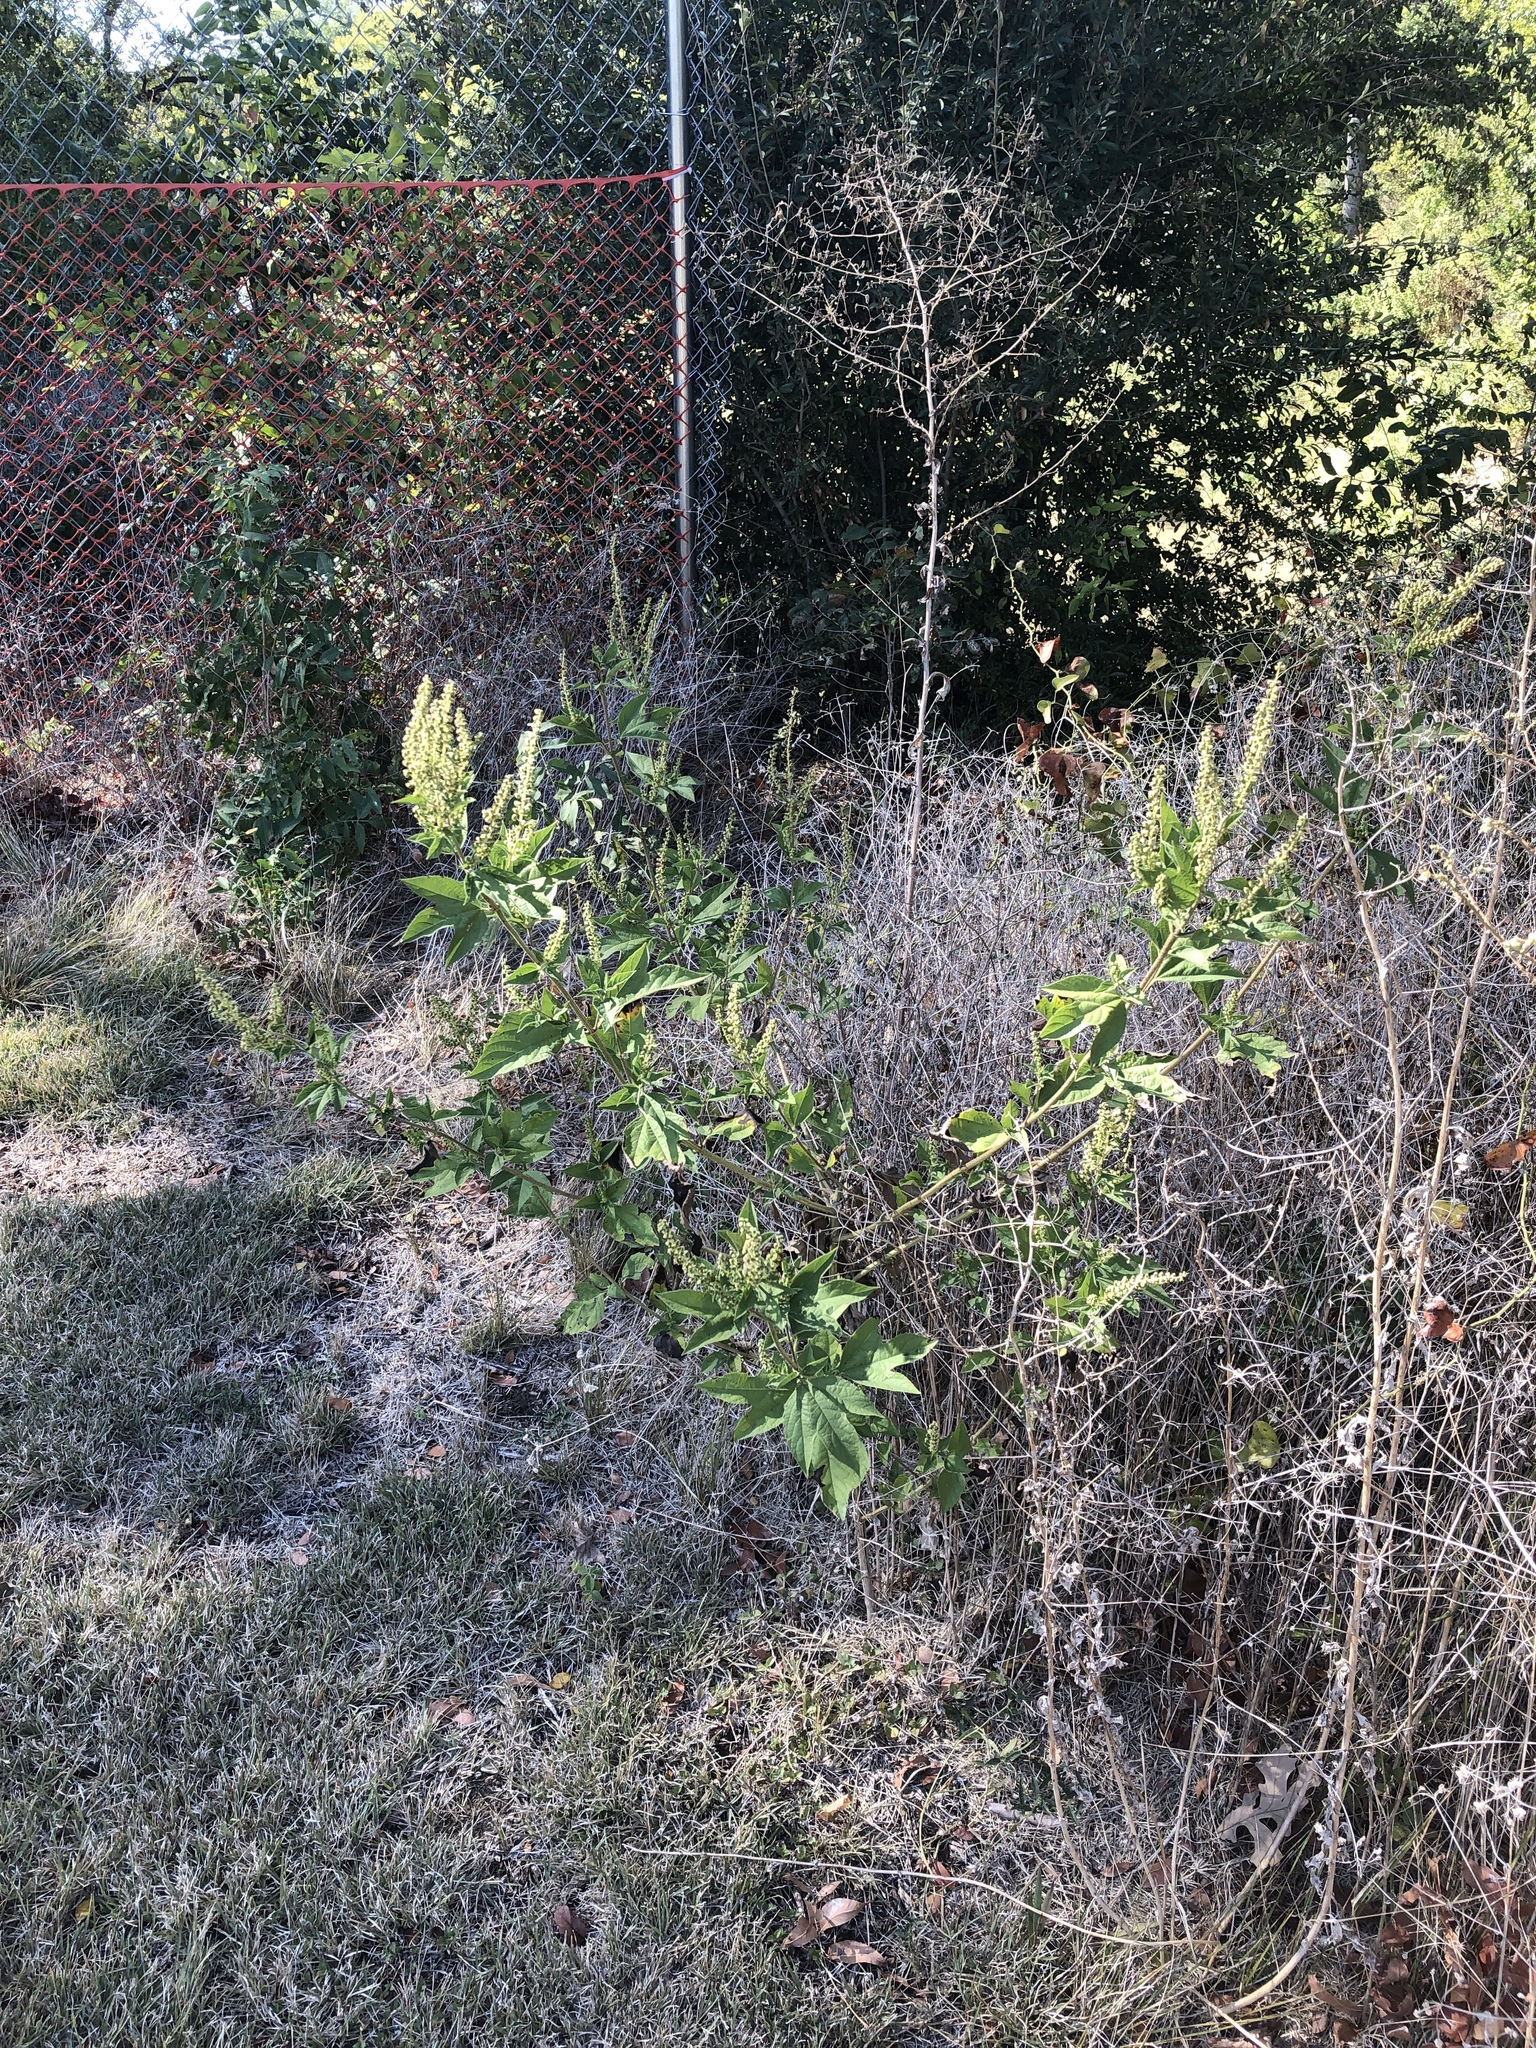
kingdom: Plantae
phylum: Tracheophyta
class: Magnoliopsida
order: Asterales
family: Asteraceae
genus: Ambrosia
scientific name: Ambrosia trifida
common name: Giant ragweed
